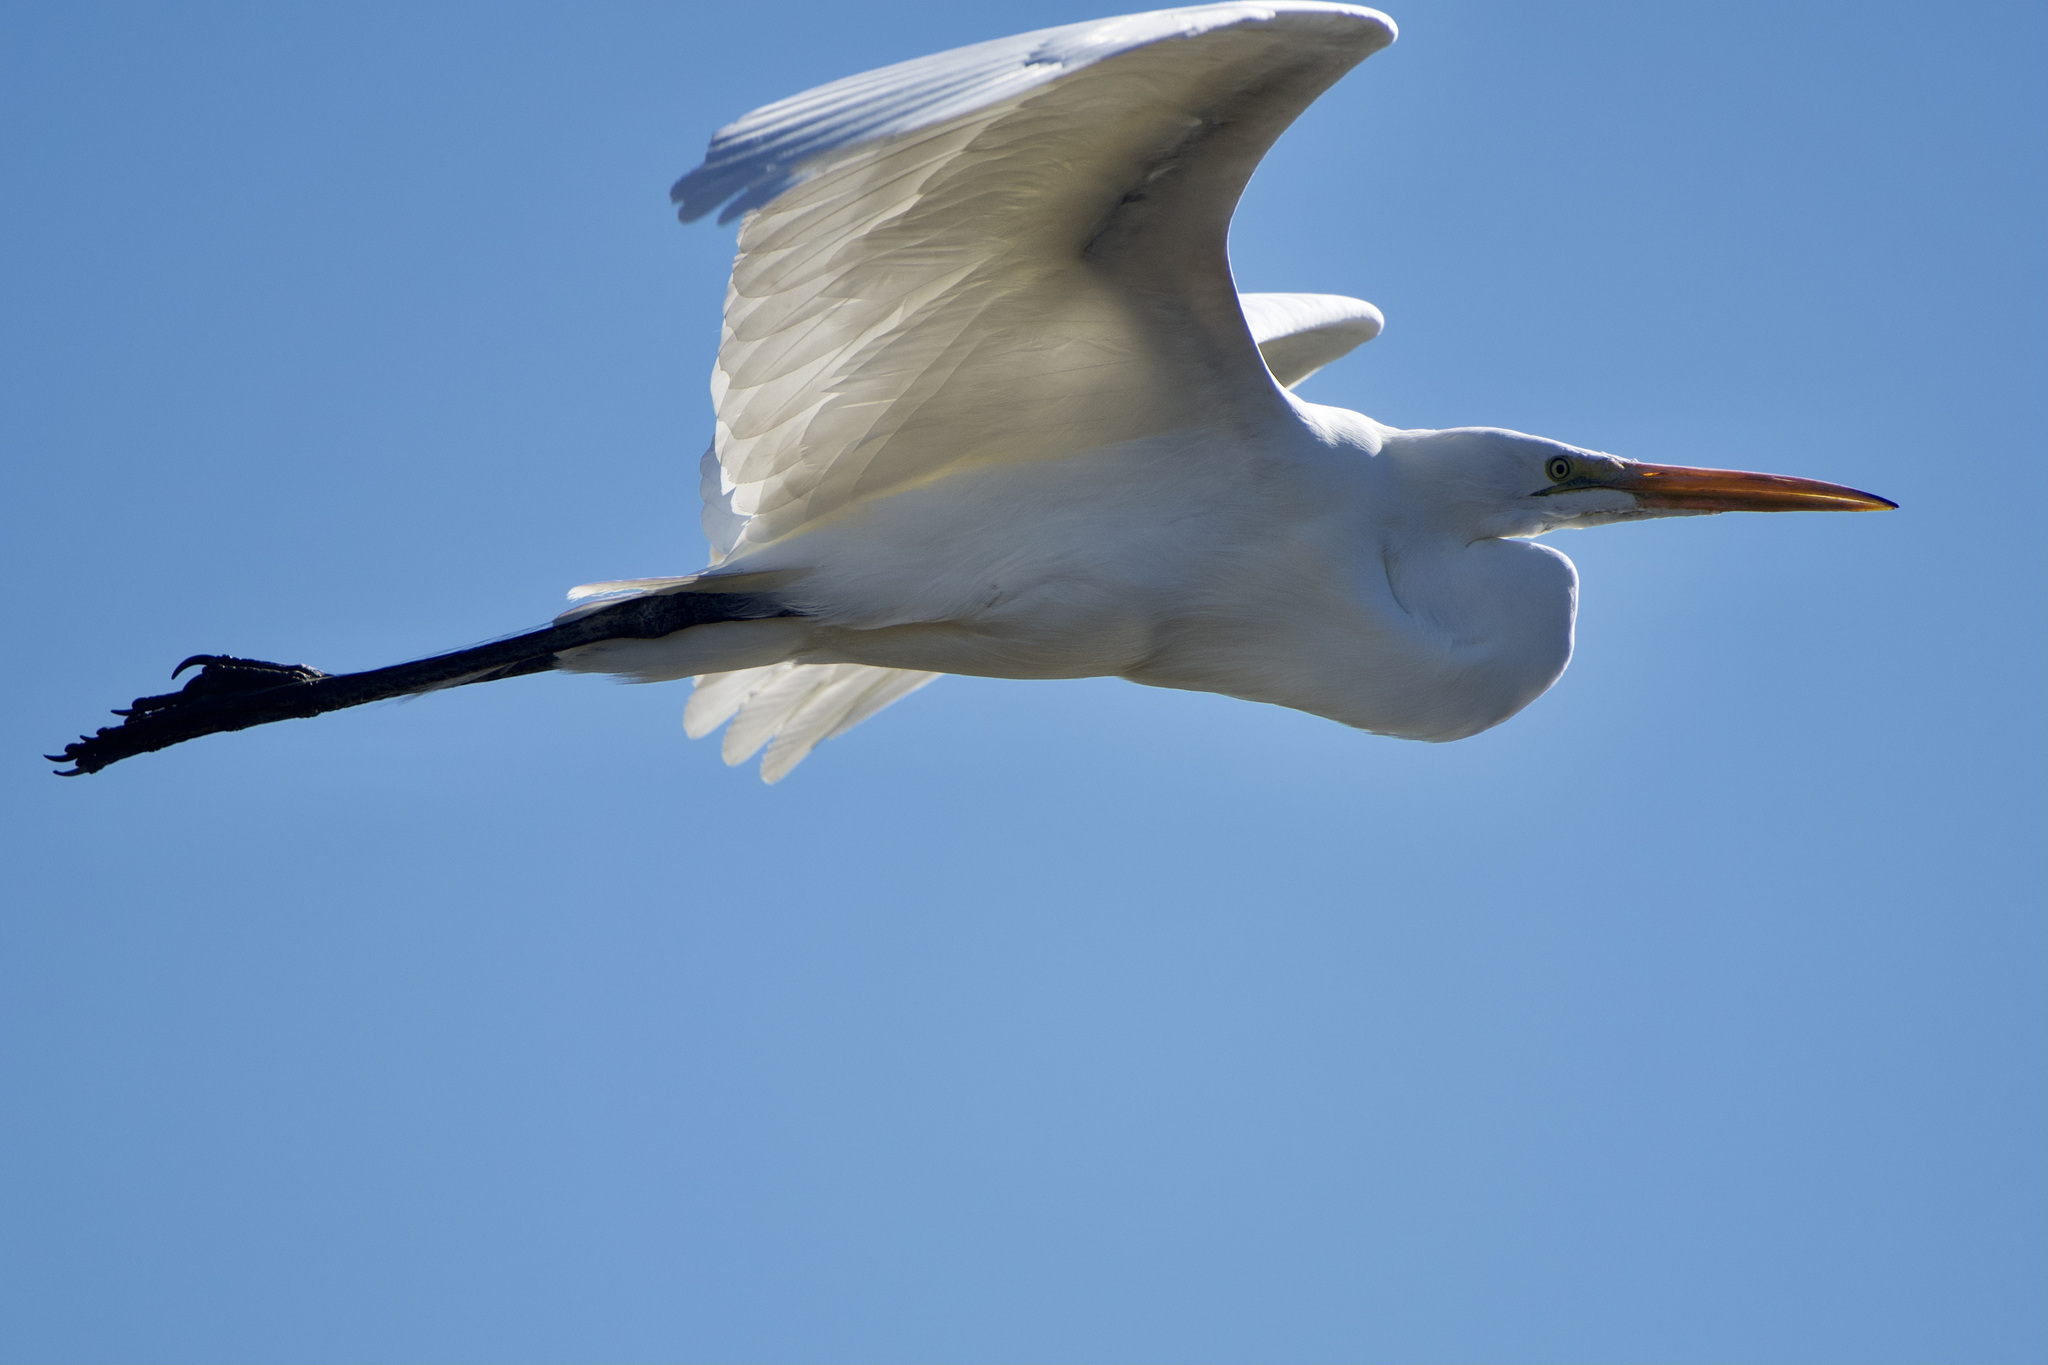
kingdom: Animalia
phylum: Chordata
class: Aves
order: Pelecaniformes
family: Ardeidae
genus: Ardea
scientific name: Ardea alba
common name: Great egret
